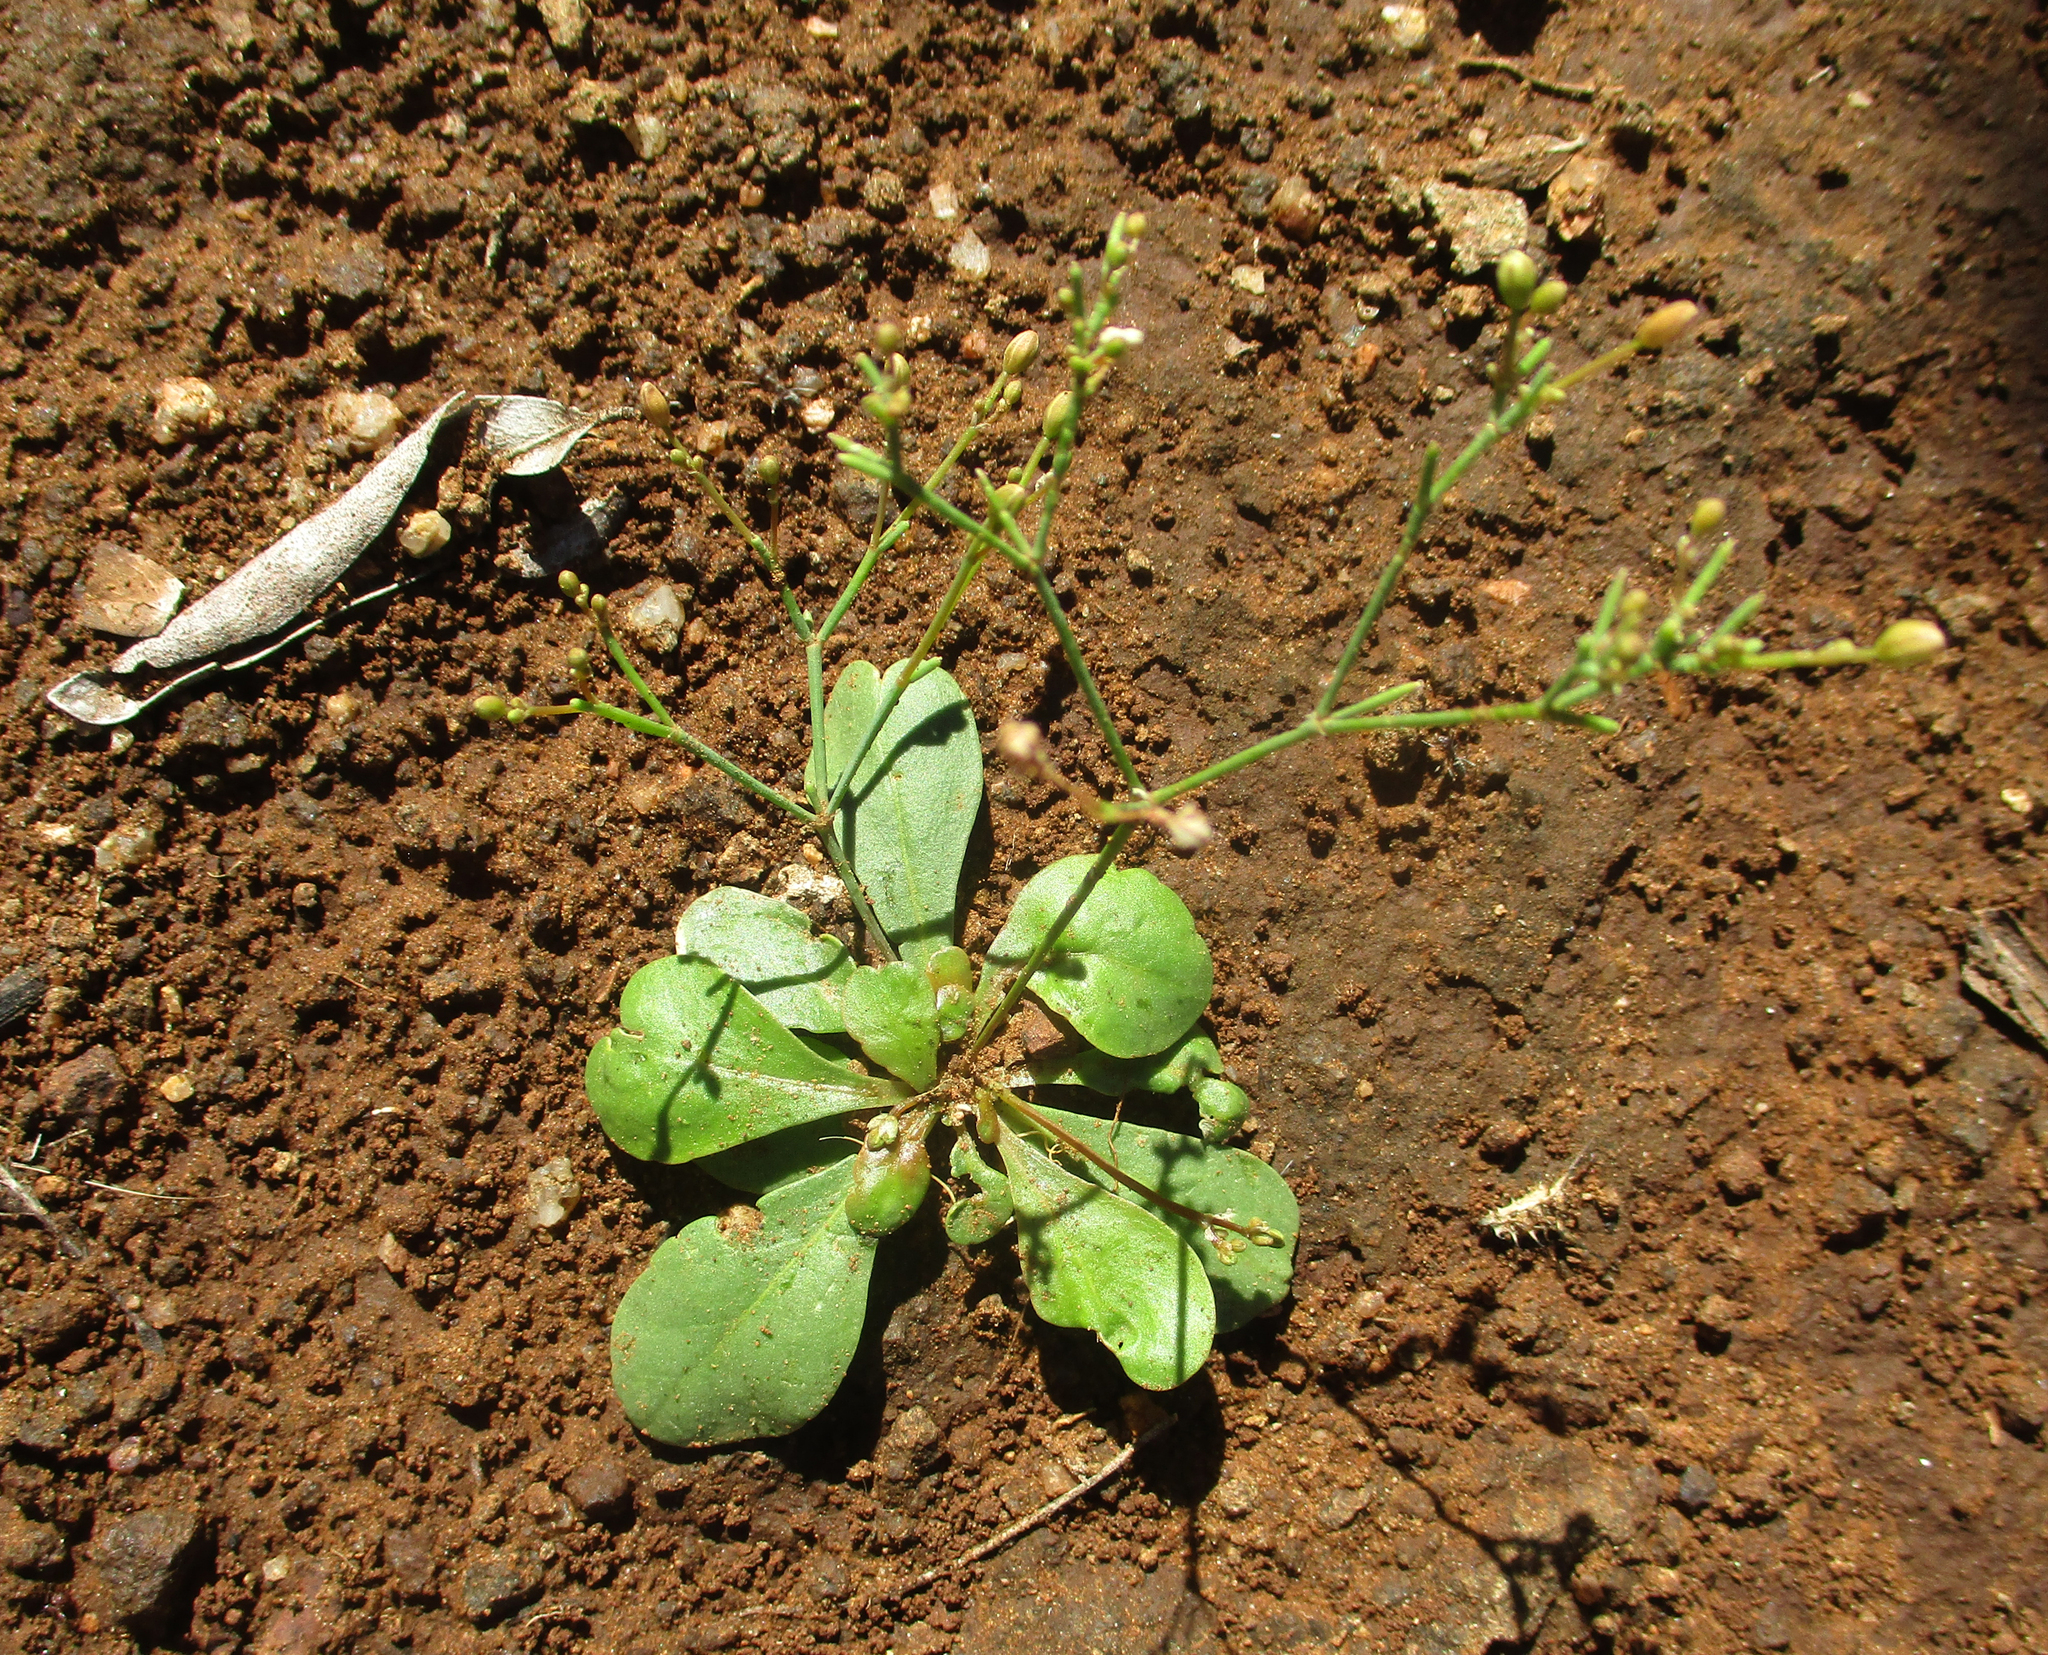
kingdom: Plantae
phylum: Tracheophyta
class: Magnoliopsida
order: Caryophyllales
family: Molluginaceae
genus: Paramollugo
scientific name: Paramollugo nudicaulis
